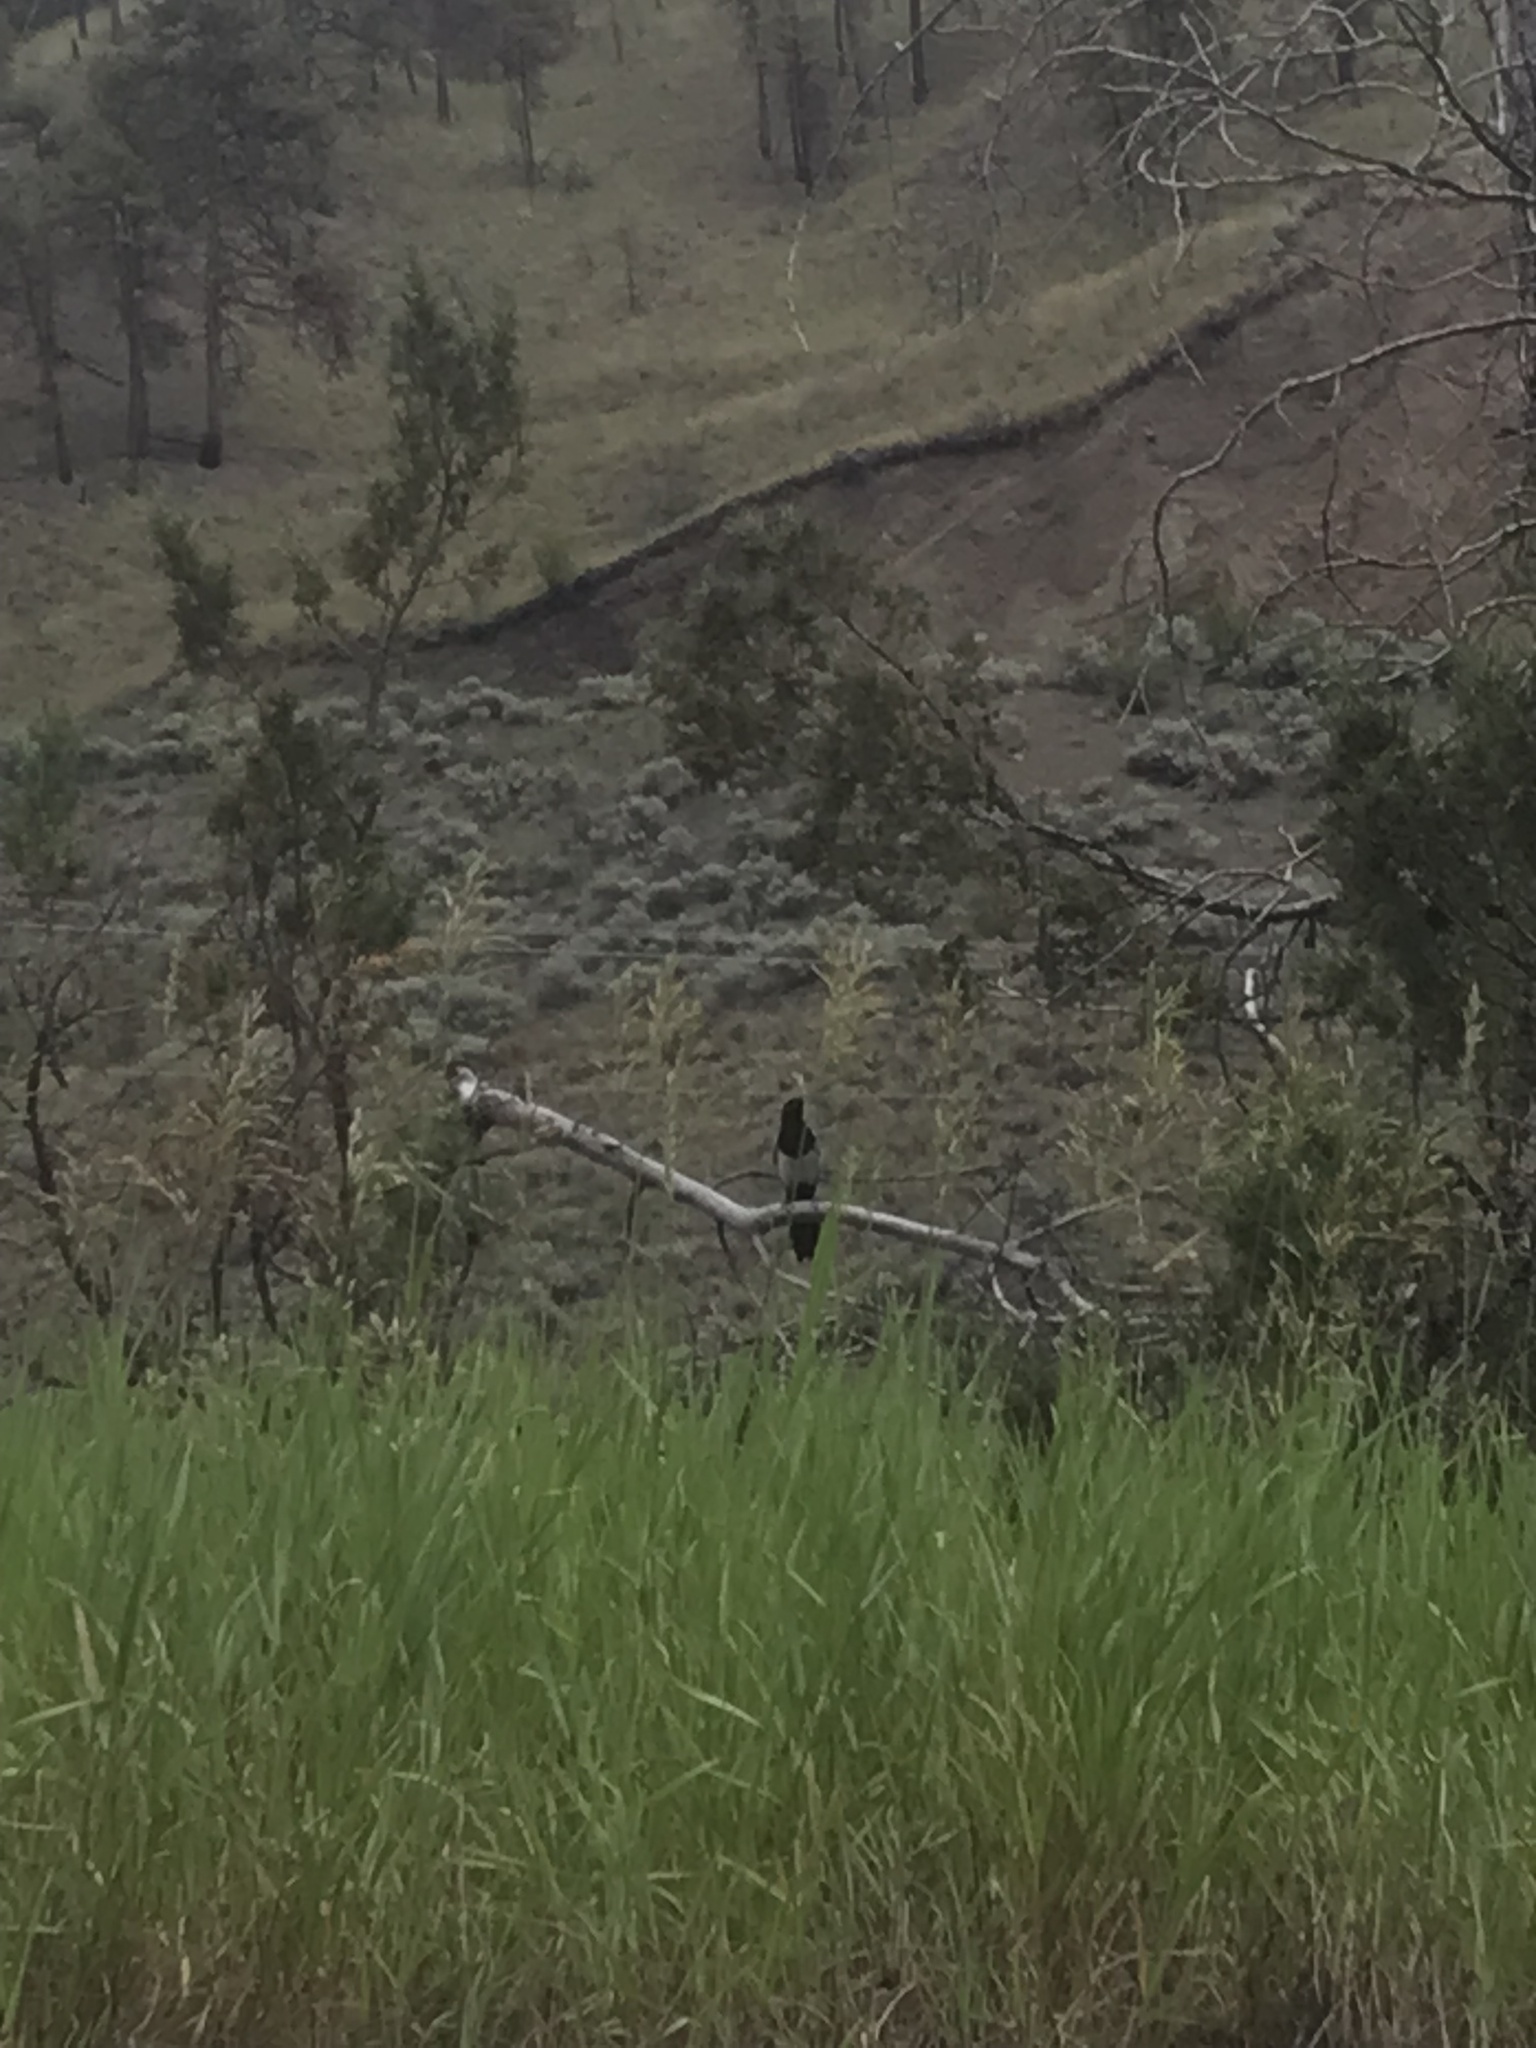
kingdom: Animalia
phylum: Chordata
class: Aves
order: Passeriformes
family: Corvidae
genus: Pica
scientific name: Pica hudsonia
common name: Black-billed magpie
